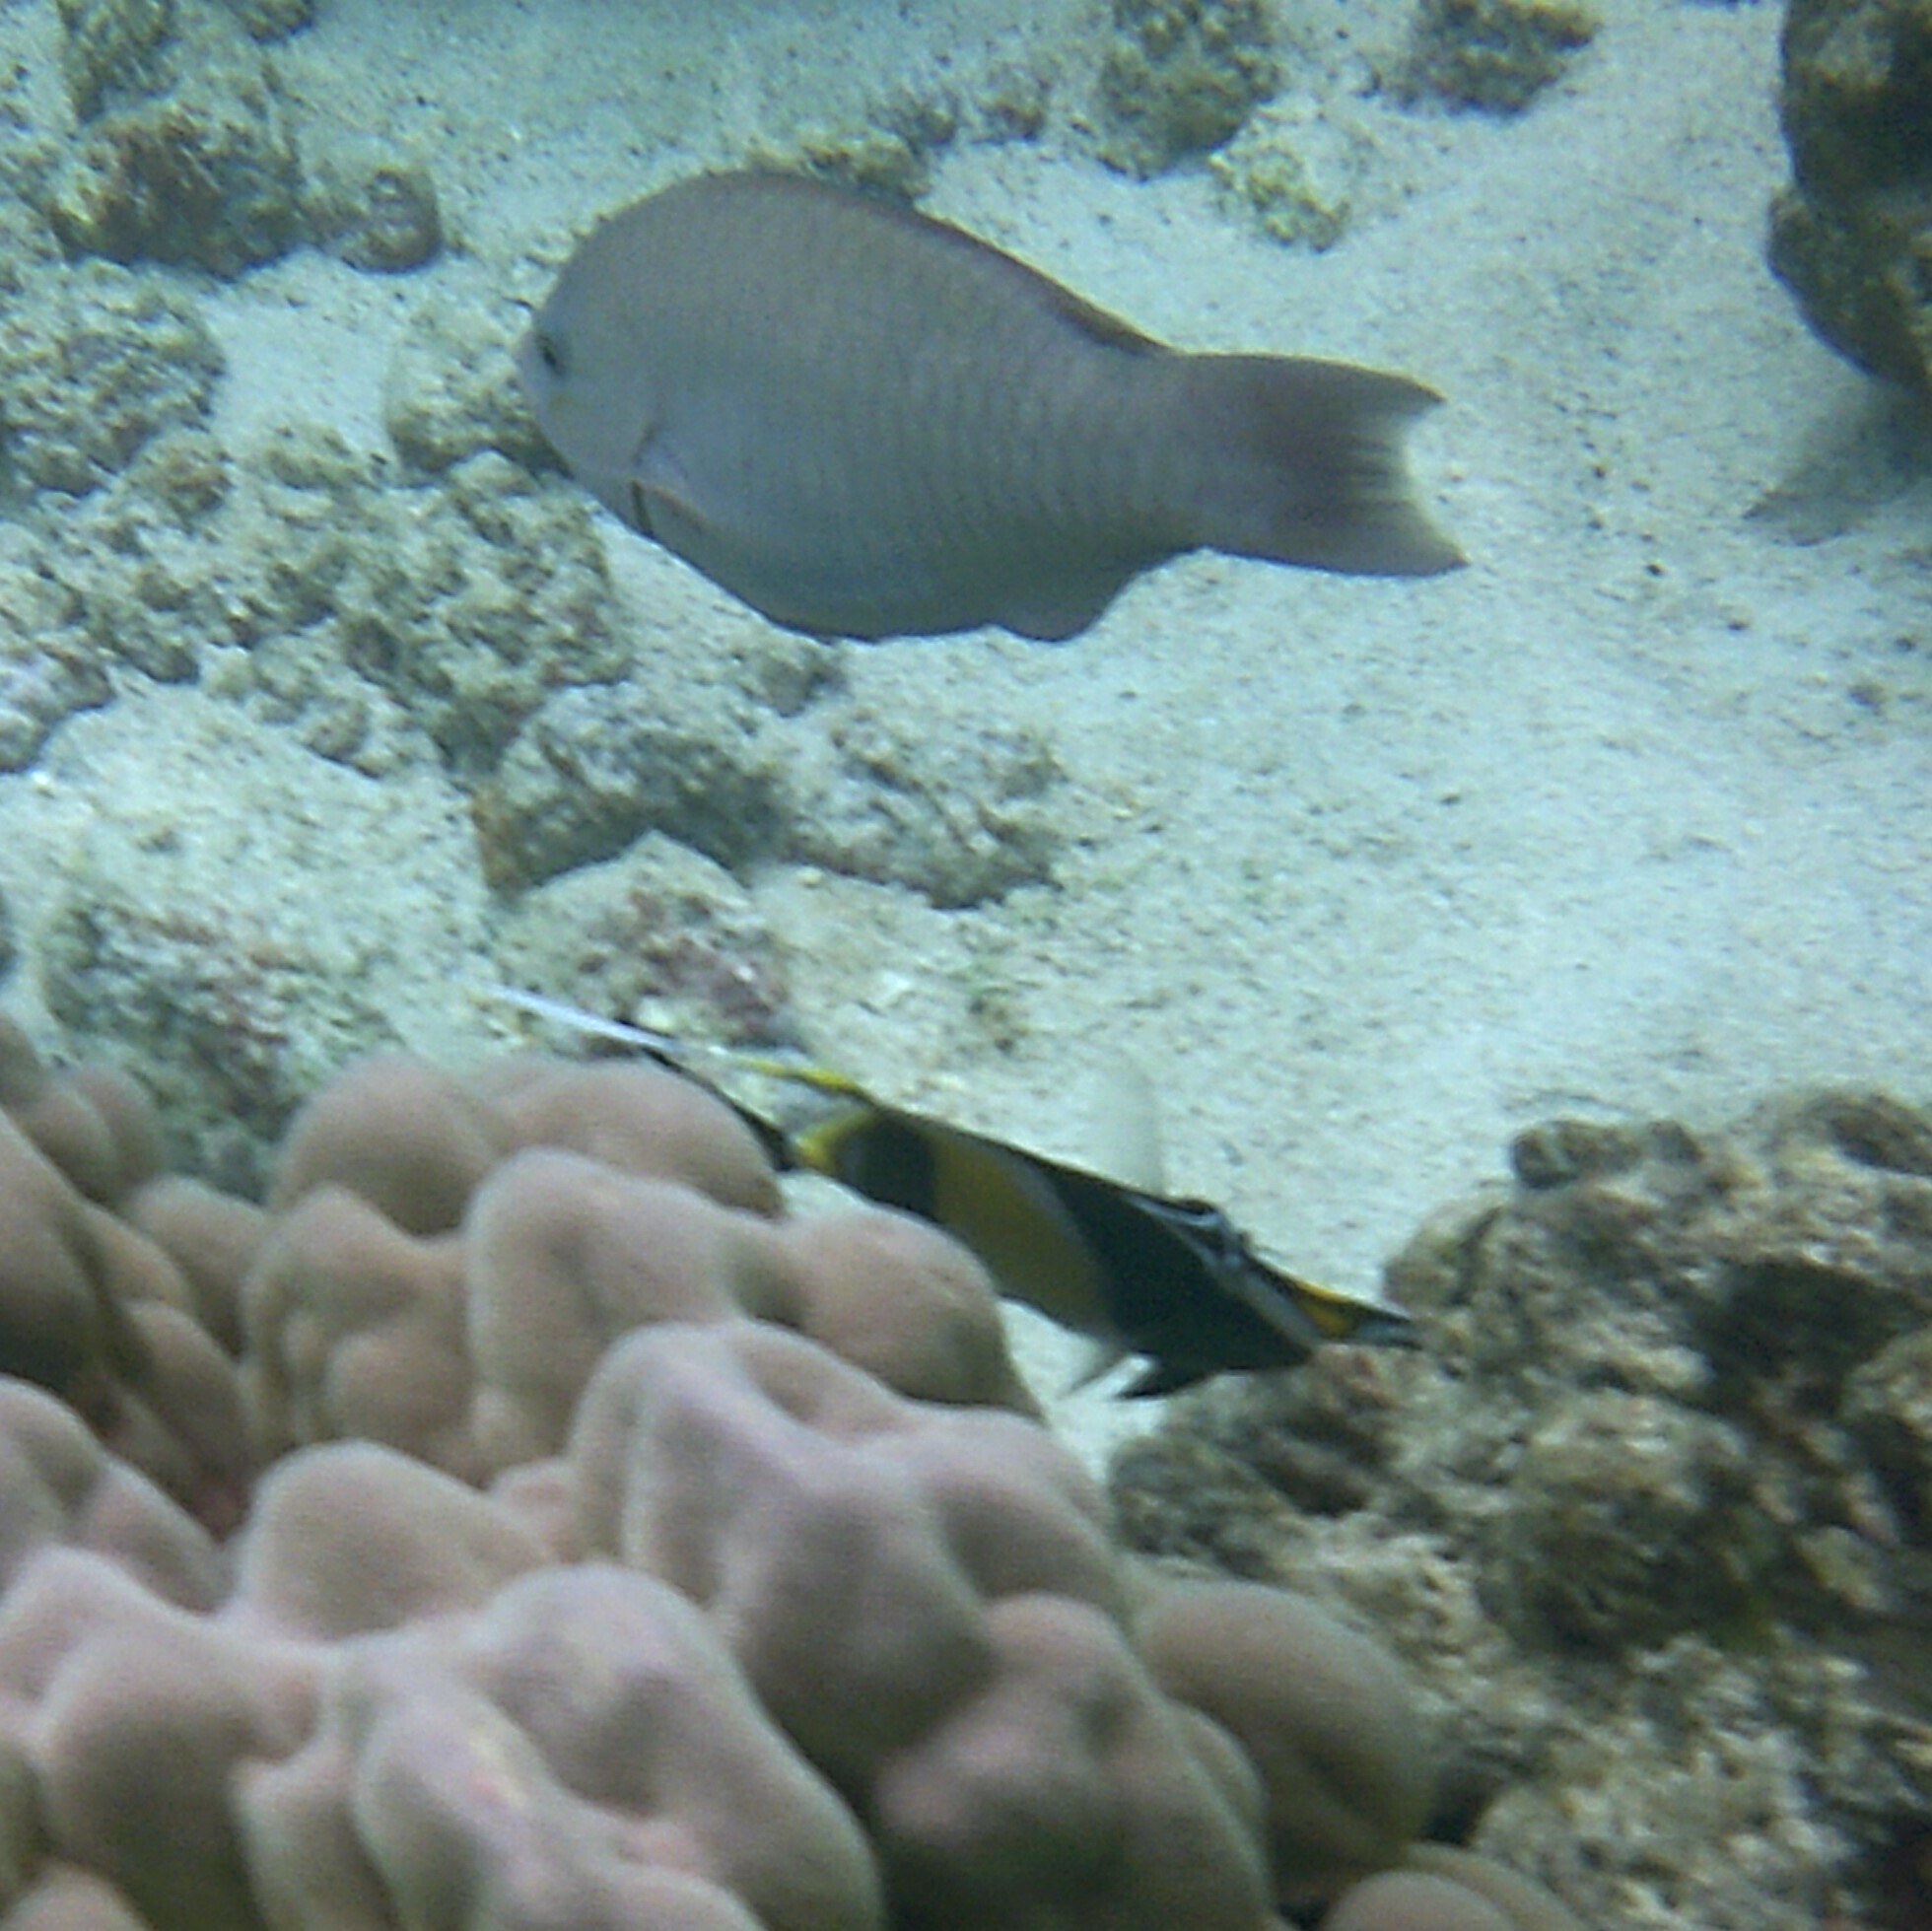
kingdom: Animalia
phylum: Chordata
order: Perciformes
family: Zanclidae
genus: Zanclus
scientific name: Zanclus cornutus
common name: Moorish idol
